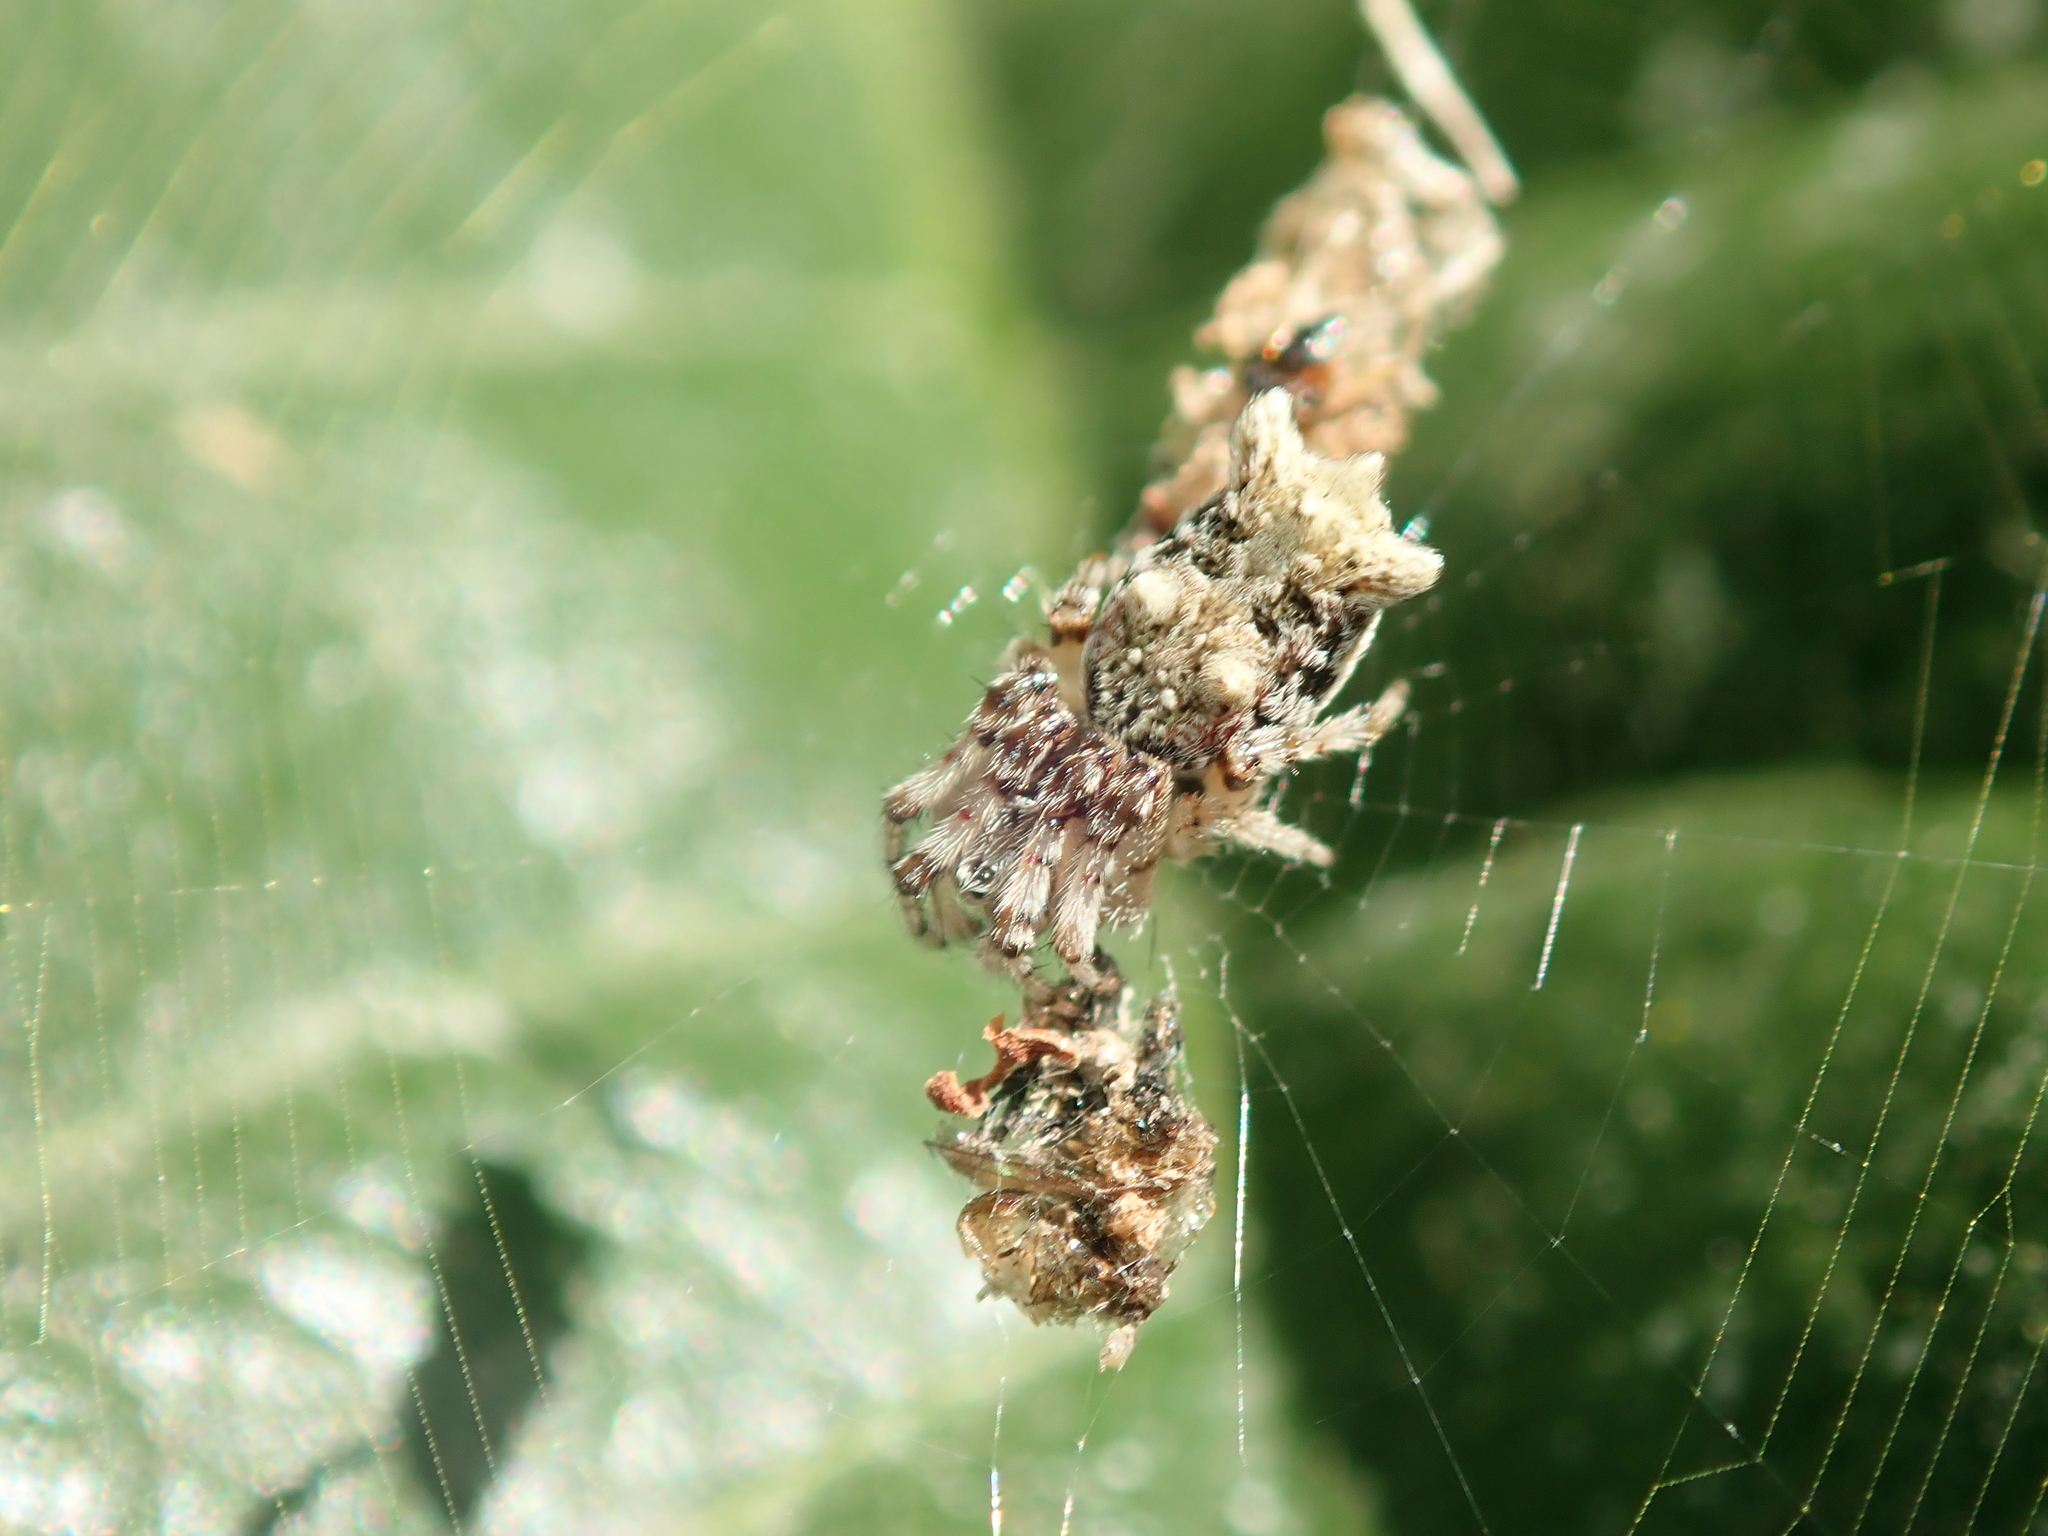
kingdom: Animalia
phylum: Arthropoda
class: Arachnida
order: Araneae
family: Araneidae
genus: Cyclosa
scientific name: Cyclosa diversa
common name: Orb weavers
